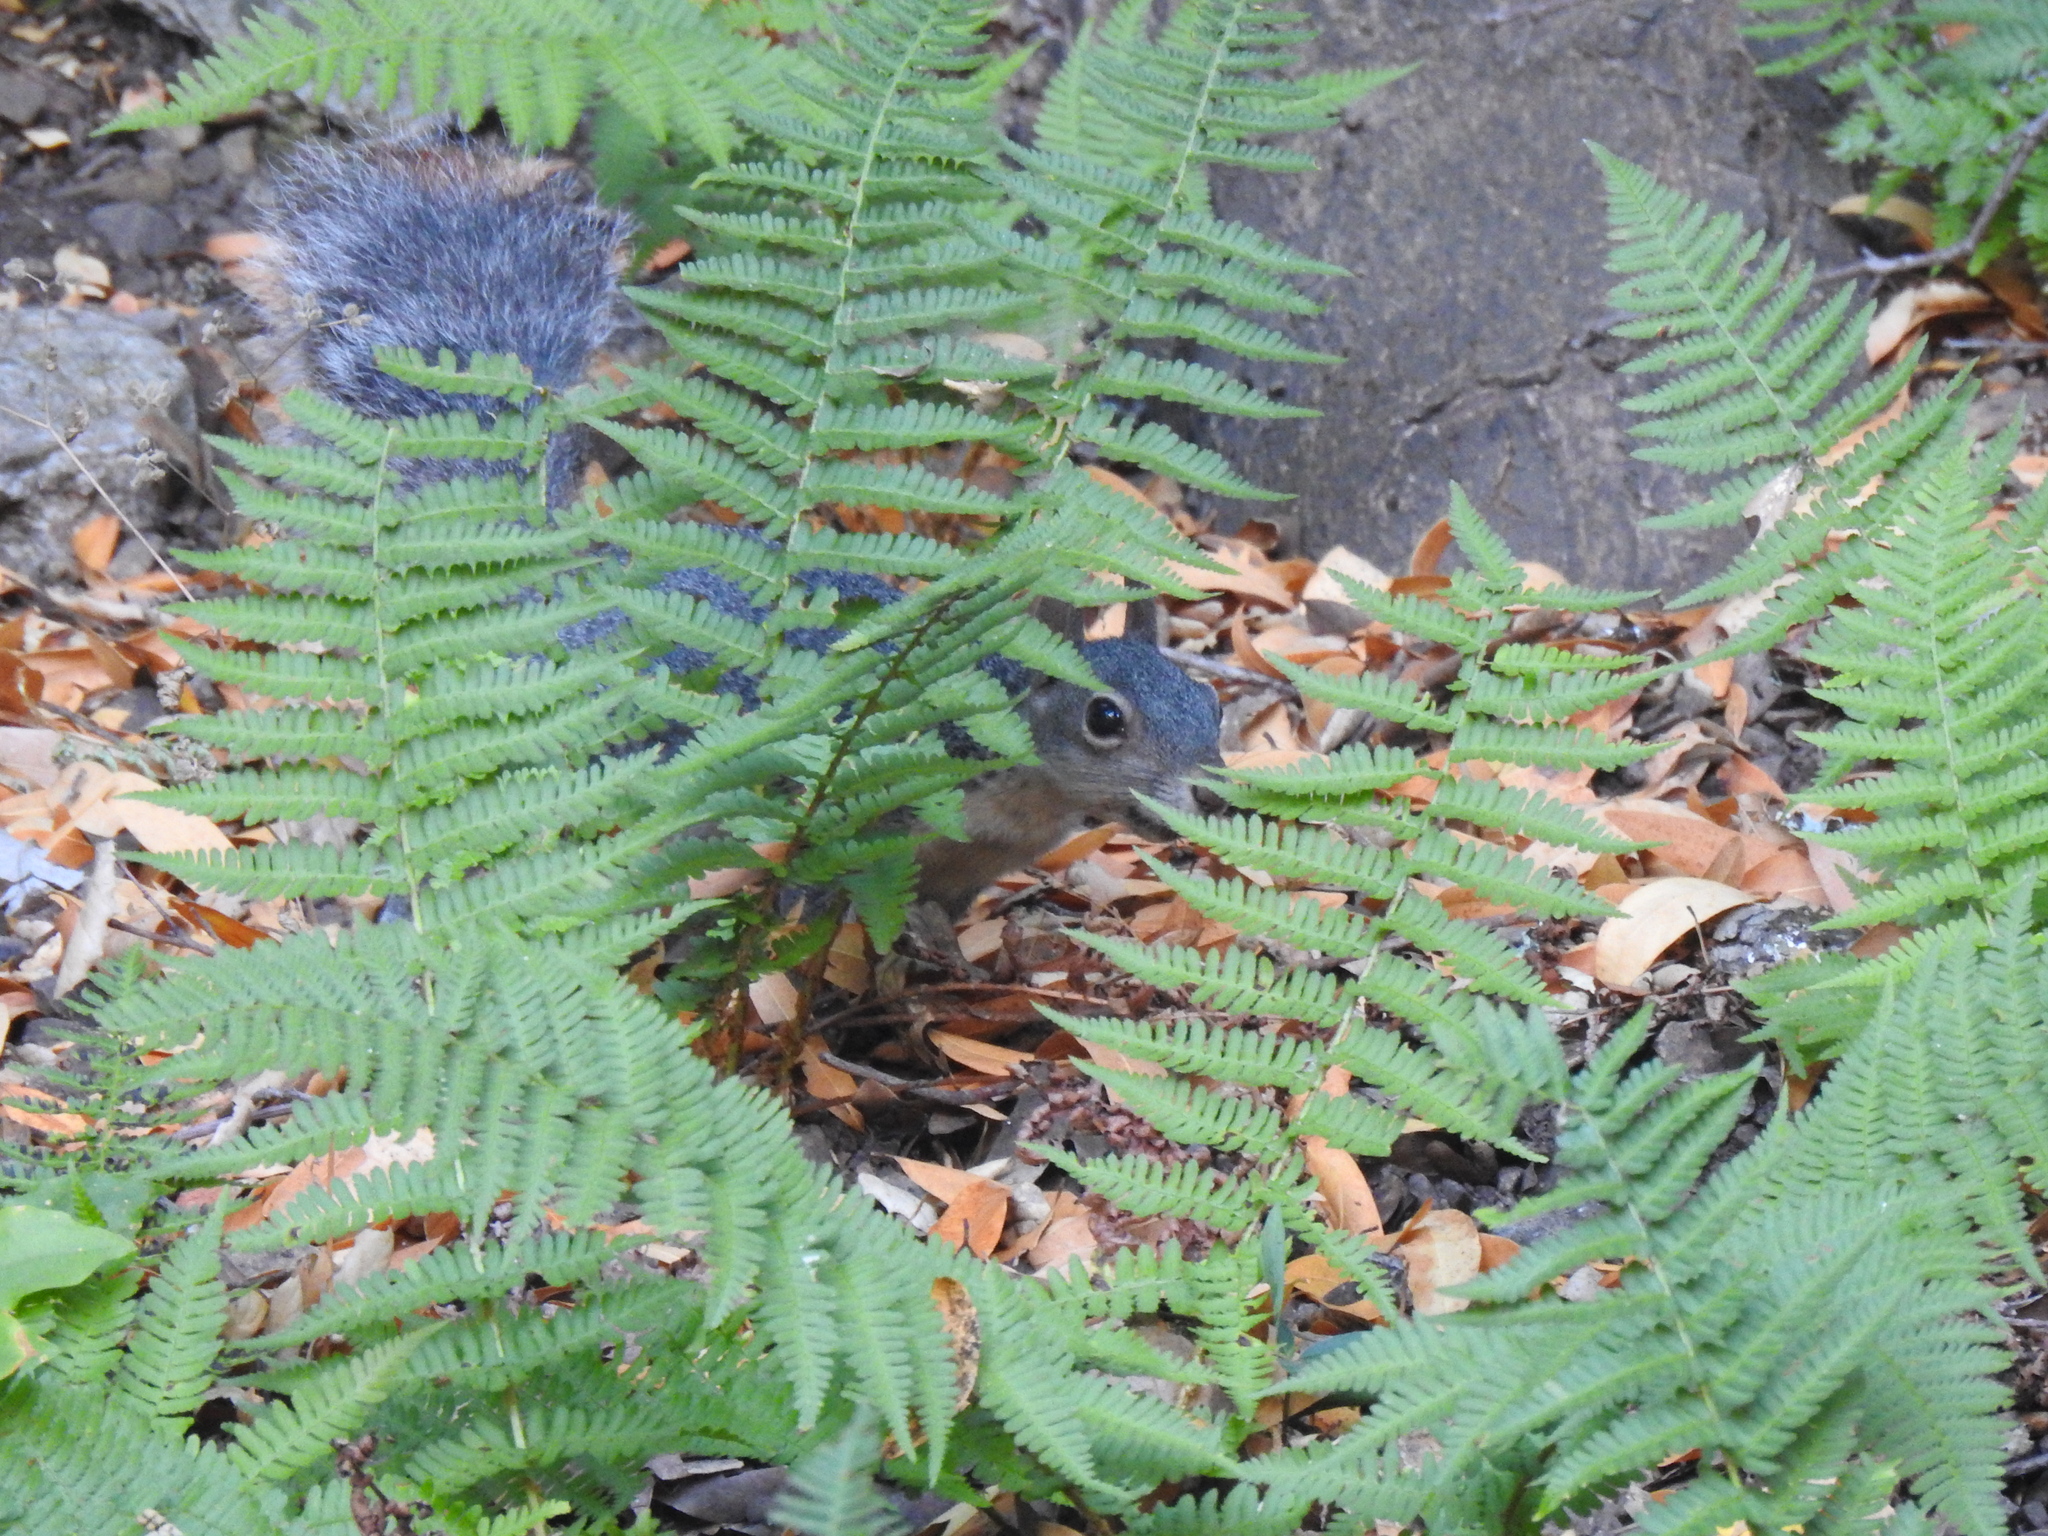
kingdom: Animalia
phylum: Chordata
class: Mammalia
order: Rodentia
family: Sciuridae
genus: Sciurus
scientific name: Sciurus griseus
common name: Western gray squirrel
